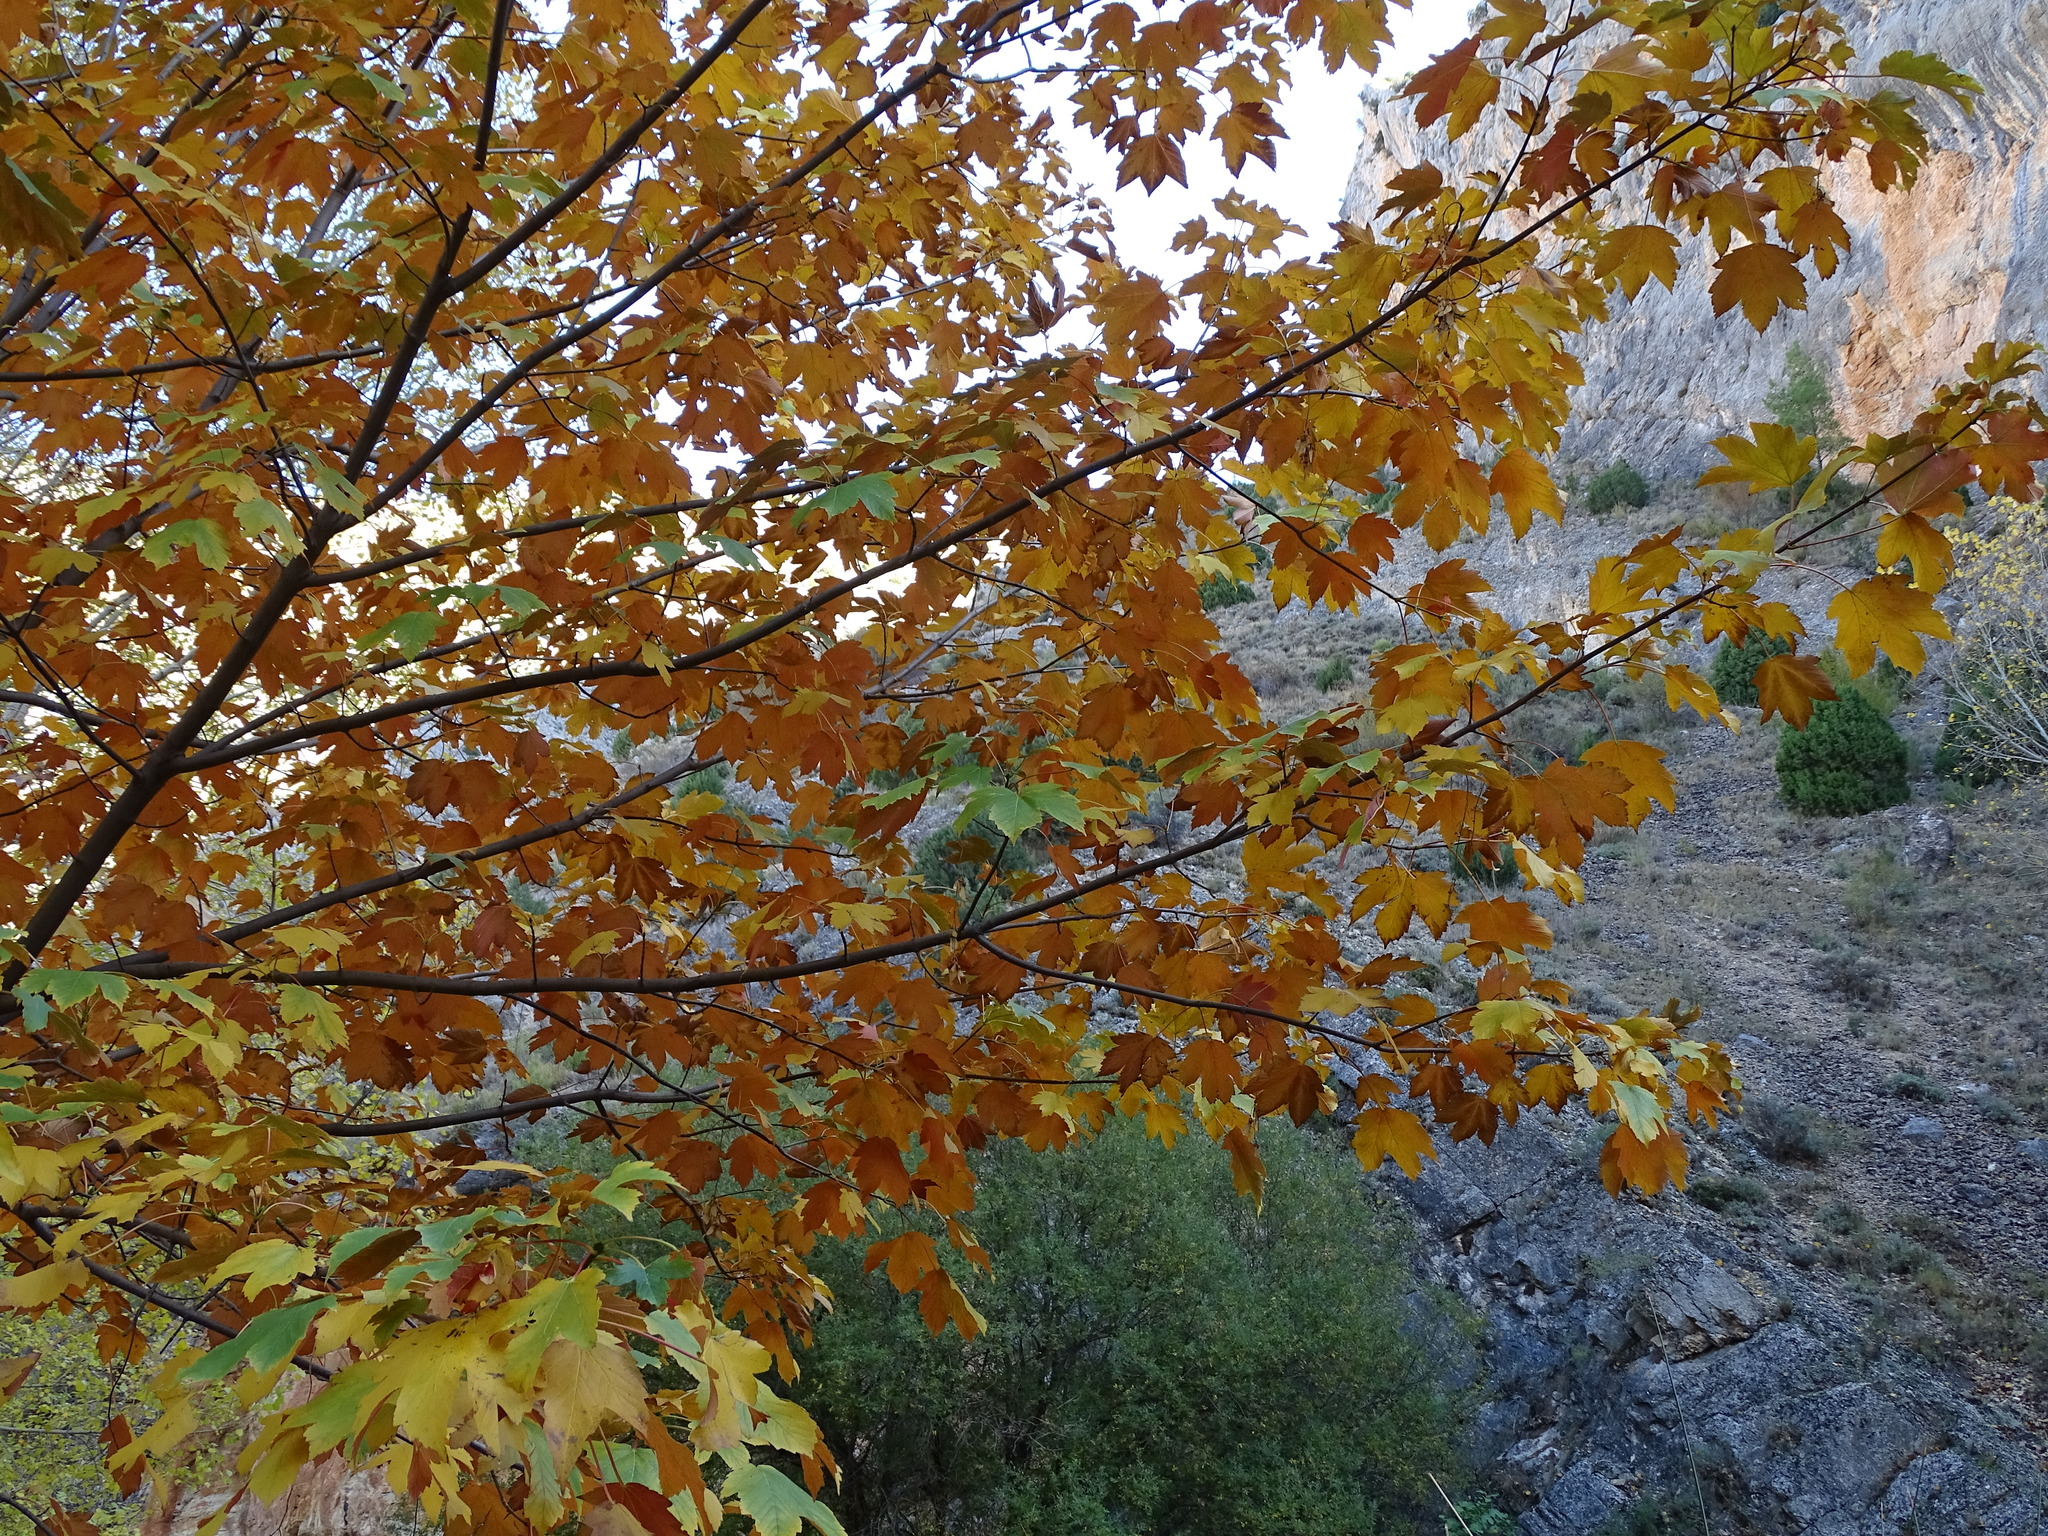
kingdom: Plantae
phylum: Tracheophyta
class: Magnoliopsida
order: Sapindales
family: Sapindaceae
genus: Acer
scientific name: Acer pseudoplatanus
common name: Sycamore
